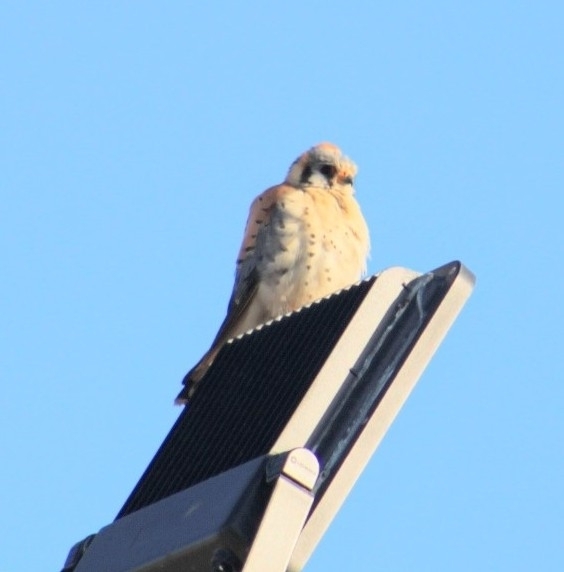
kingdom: Animalia
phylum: Chordata
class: Aves
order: Falconiformes
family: Falconidae
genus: Falco
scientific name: Falco sparverius
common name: American kestrel
